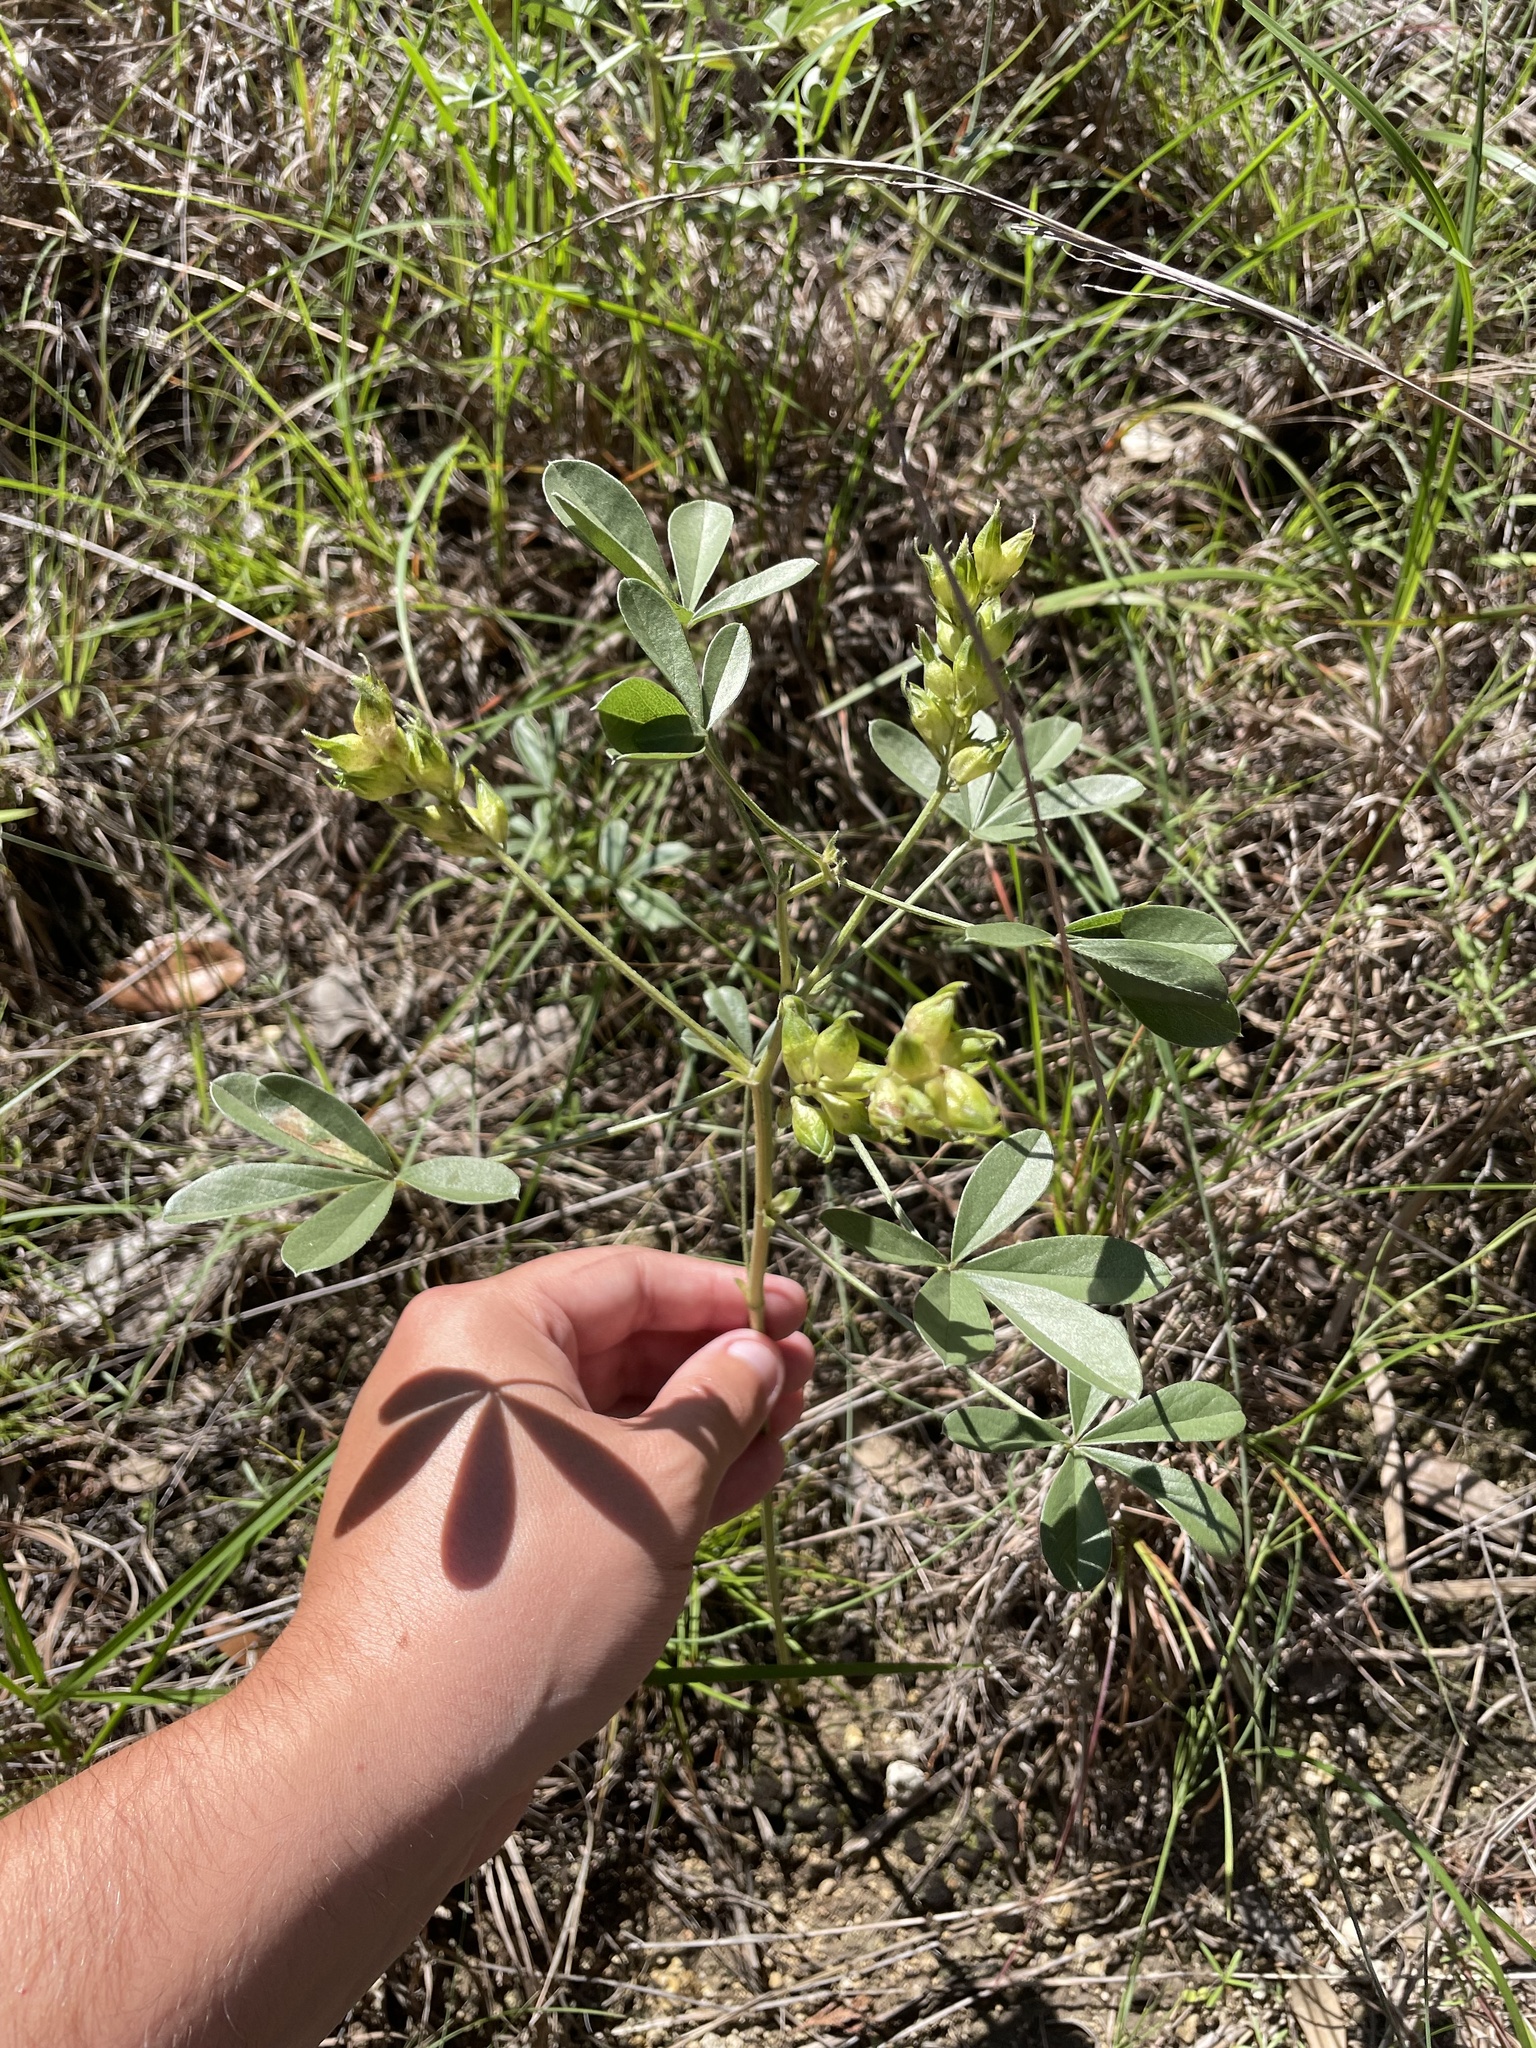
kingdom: Plantae
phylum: Tracheophyta
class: Magnoliopsida
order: Fabales
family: Fabaceae
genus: Pediomelum
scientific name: Pediomelum latestipulatum
